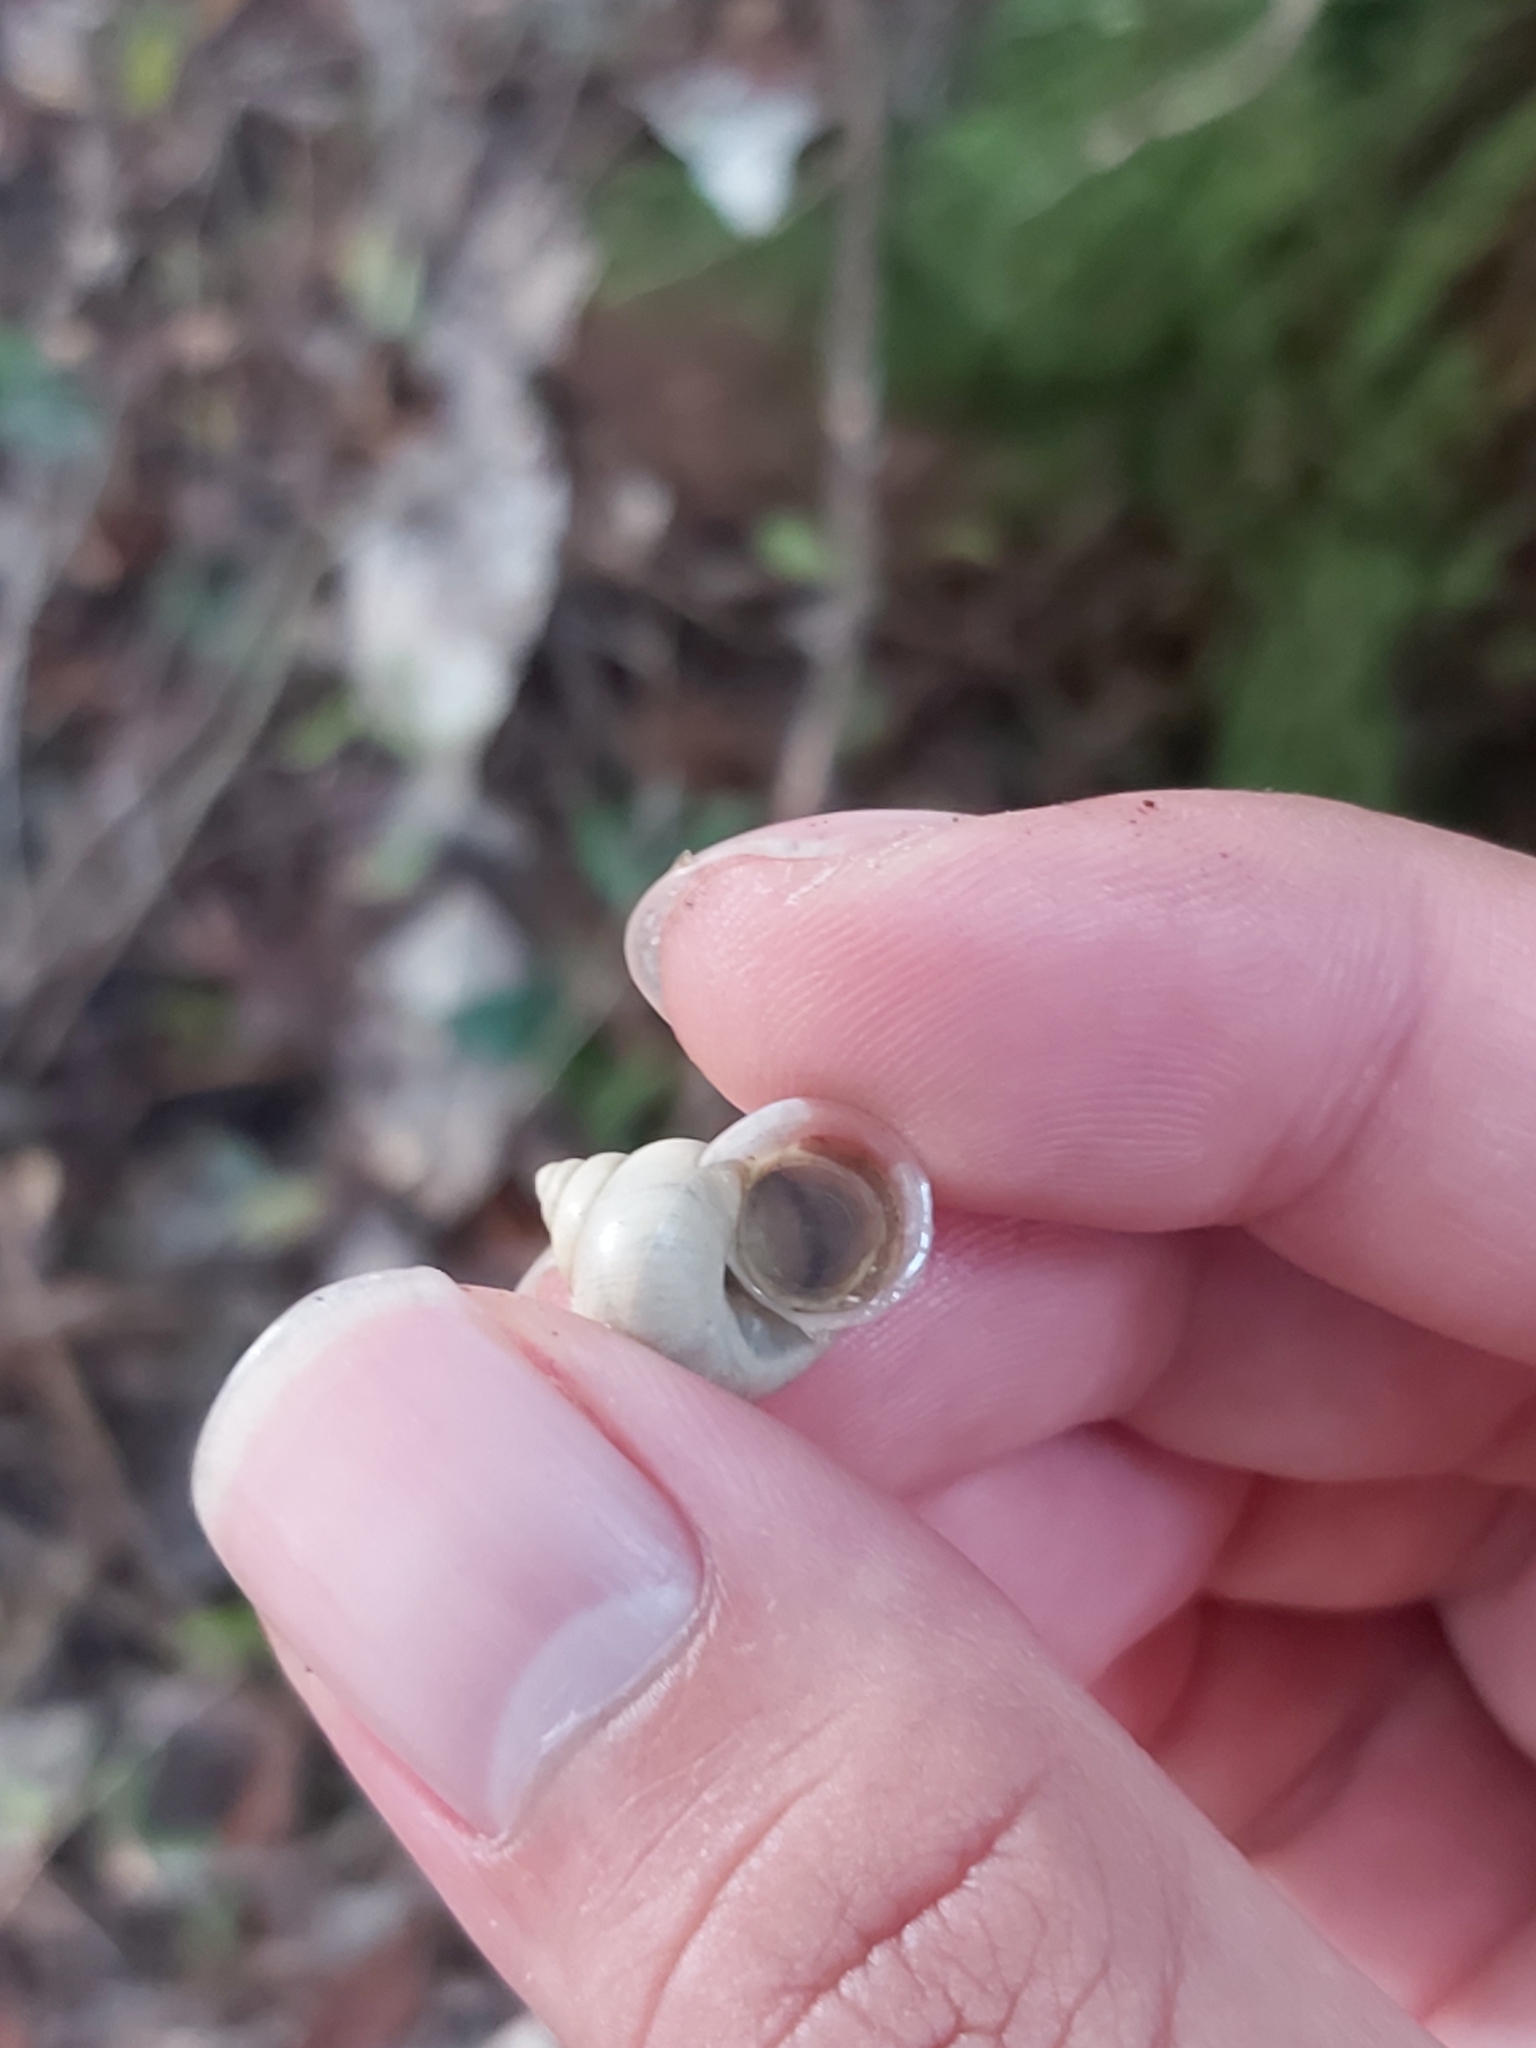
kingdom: Animalia
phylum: Mollusca
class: Gastropoda
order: Architaenioglossa
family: Cyclophoridae
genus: Leptopoma
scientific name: Leptopoma perlucidum
